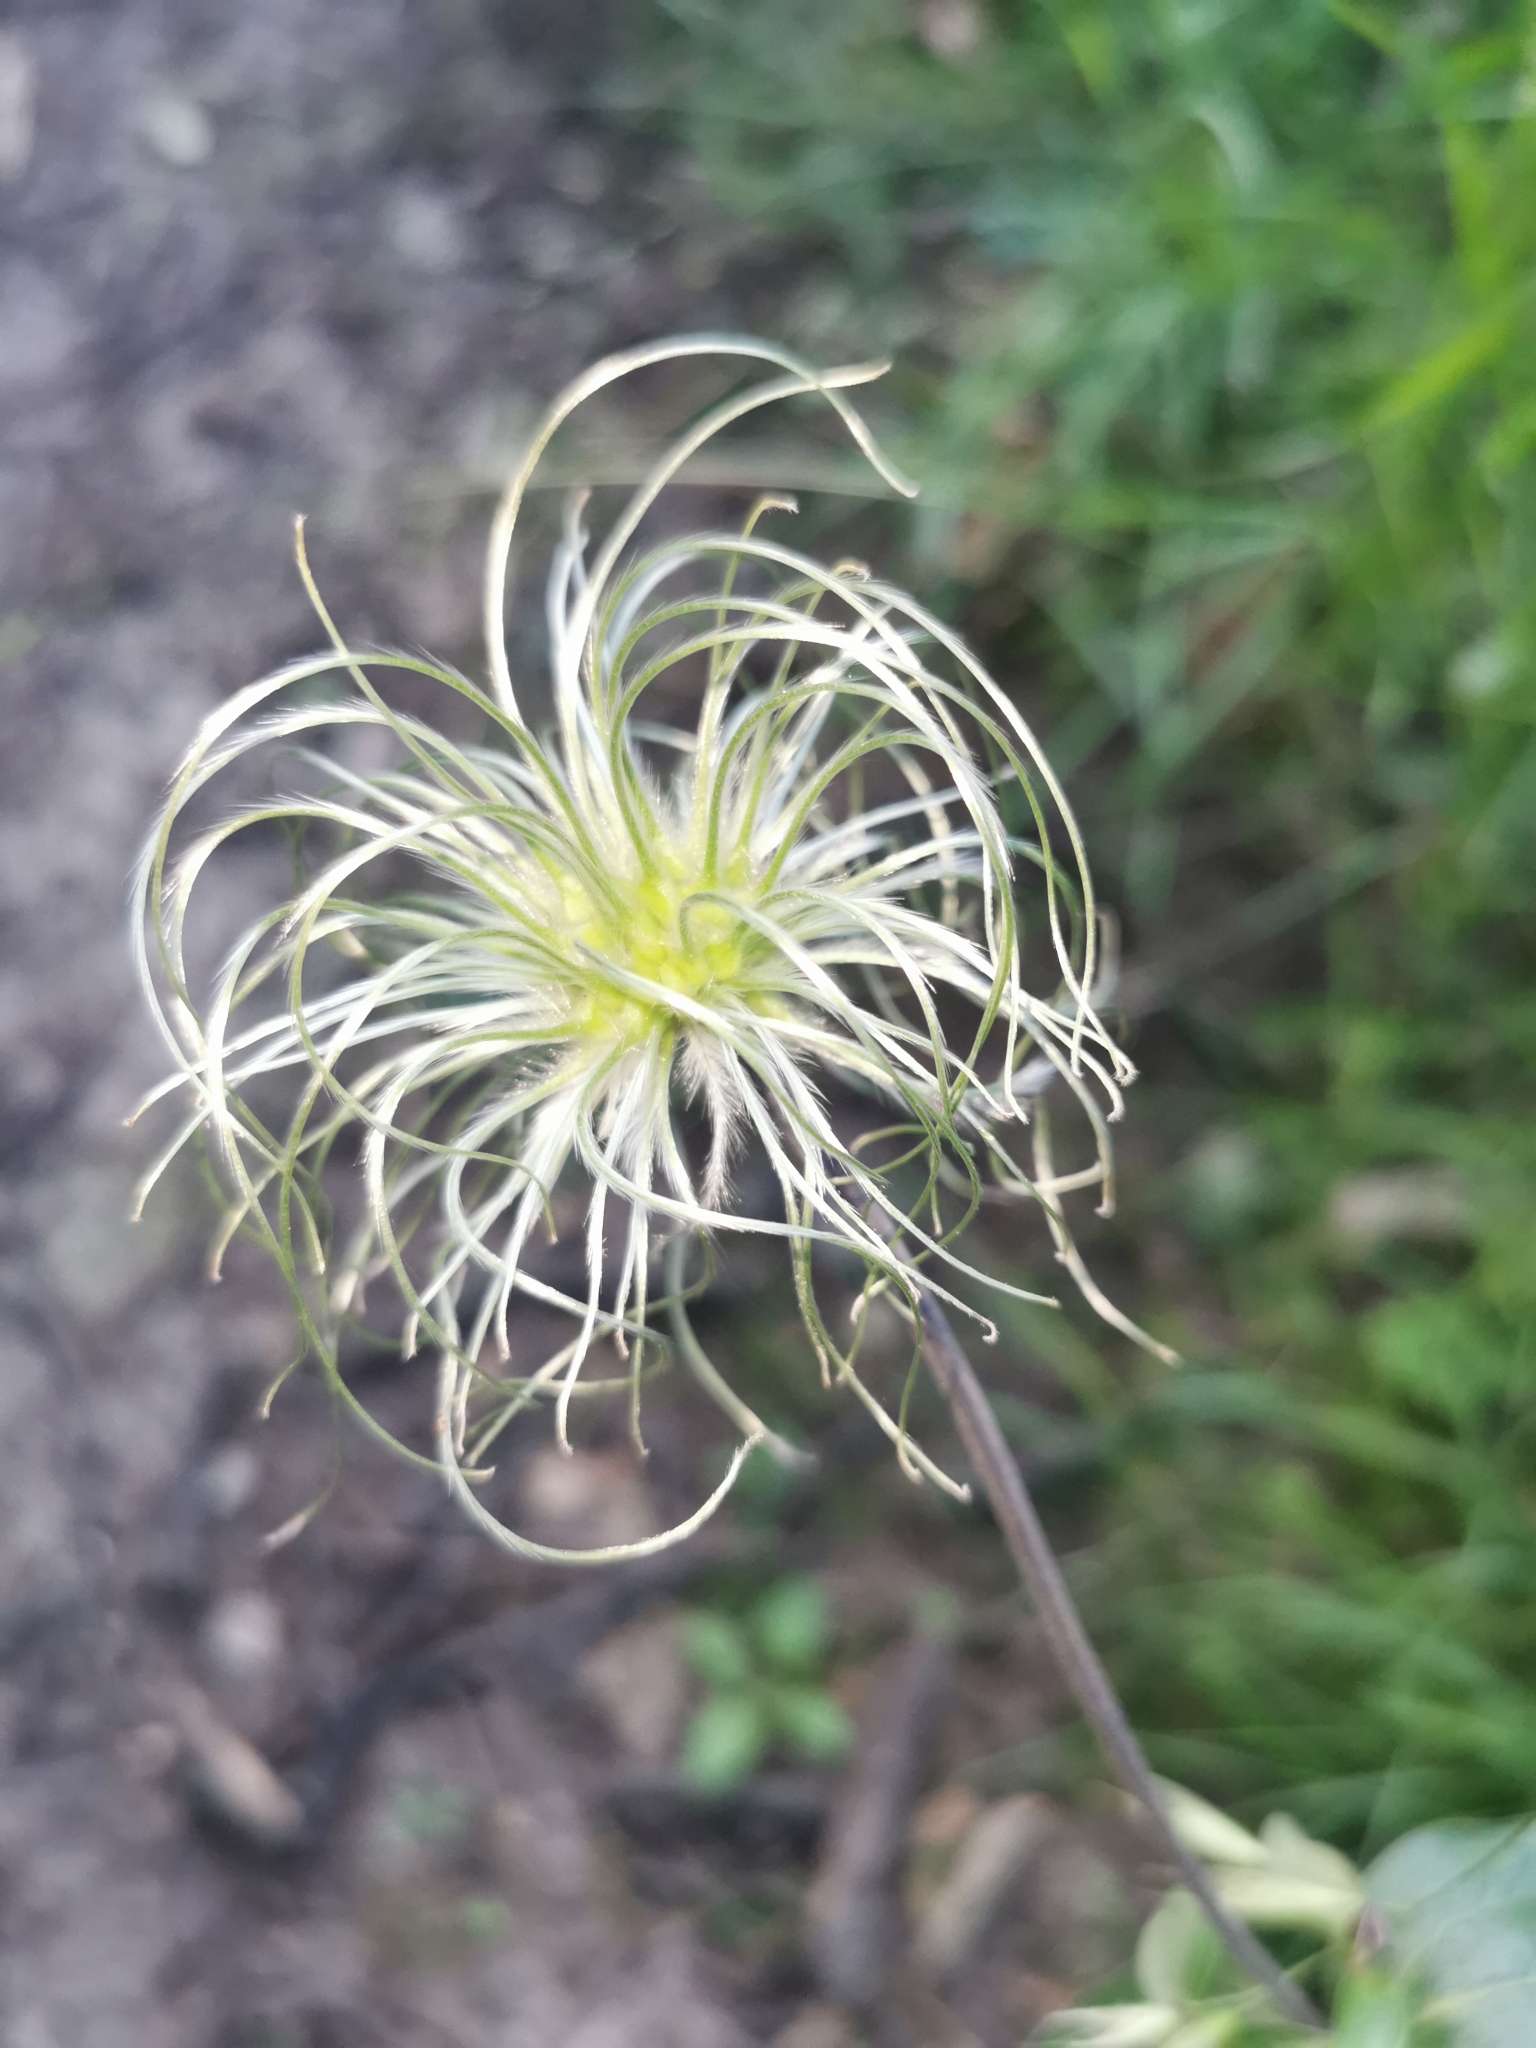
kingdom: Plantae
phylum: Tracheophyta
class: Magnoliopsida
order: Ranunculales
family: Ranunculaceae
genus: Clematis
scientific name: Clematis integrifolia
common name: Solitary clematis
